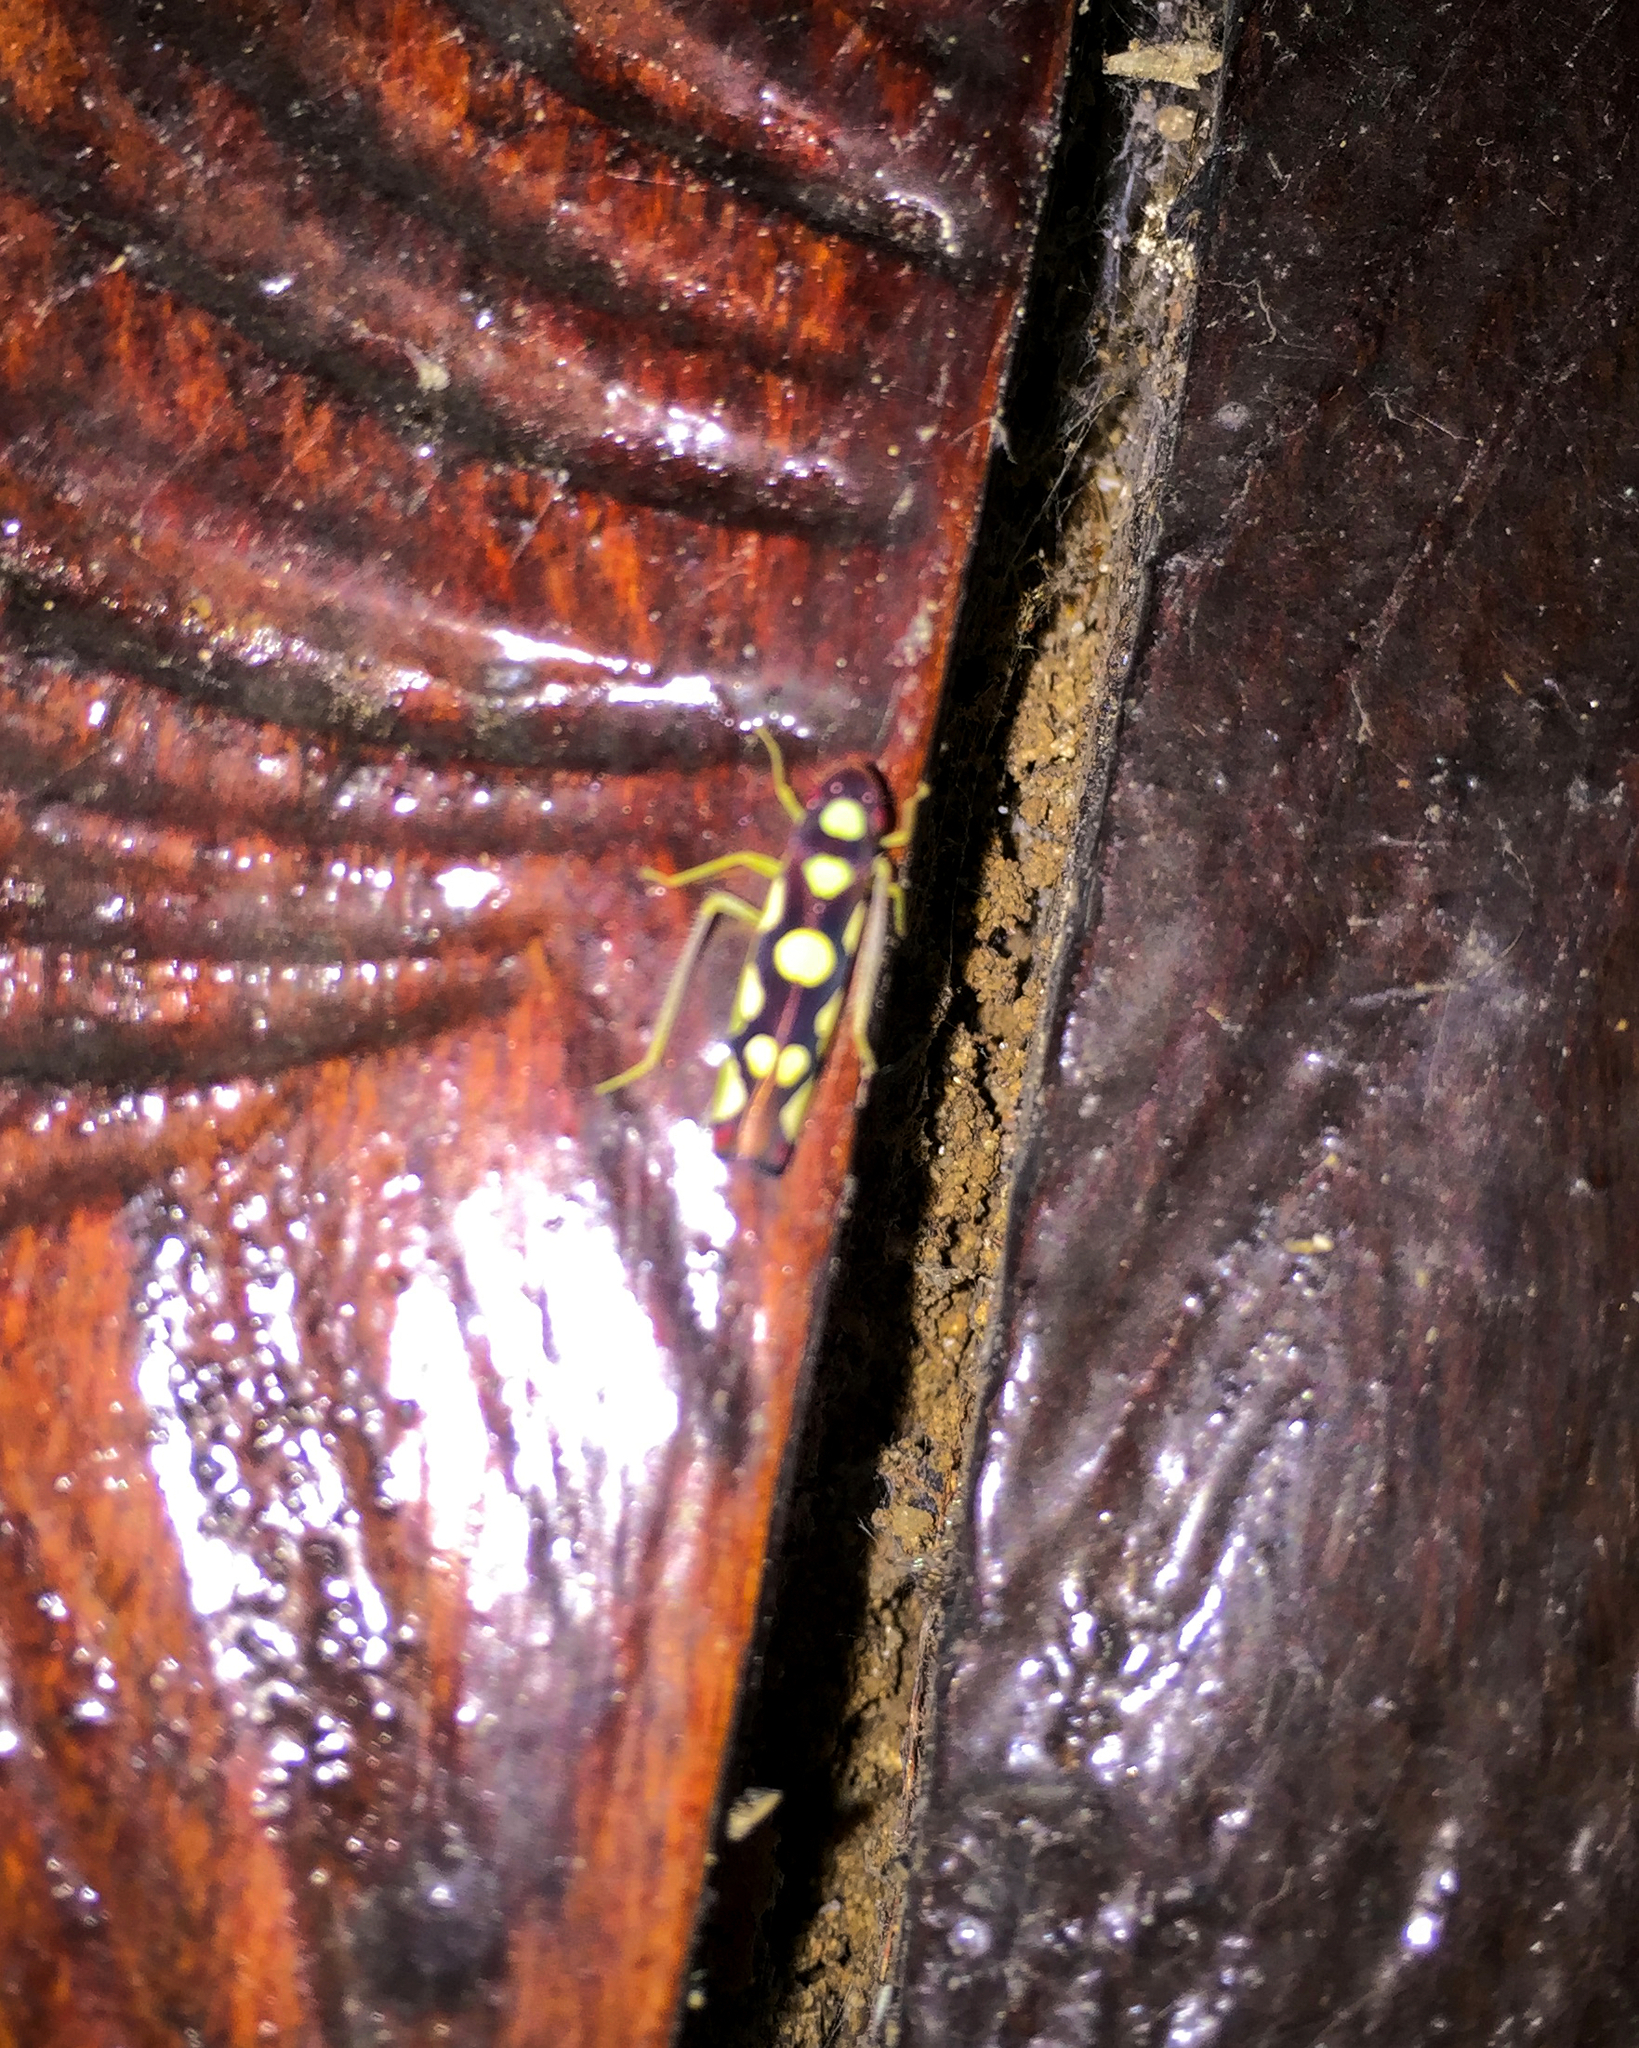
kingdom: Animalia
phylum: Arthropoda
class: Insecta
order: Hemiptera
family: Cicadellidae
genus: Baleja
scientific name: Baleja
